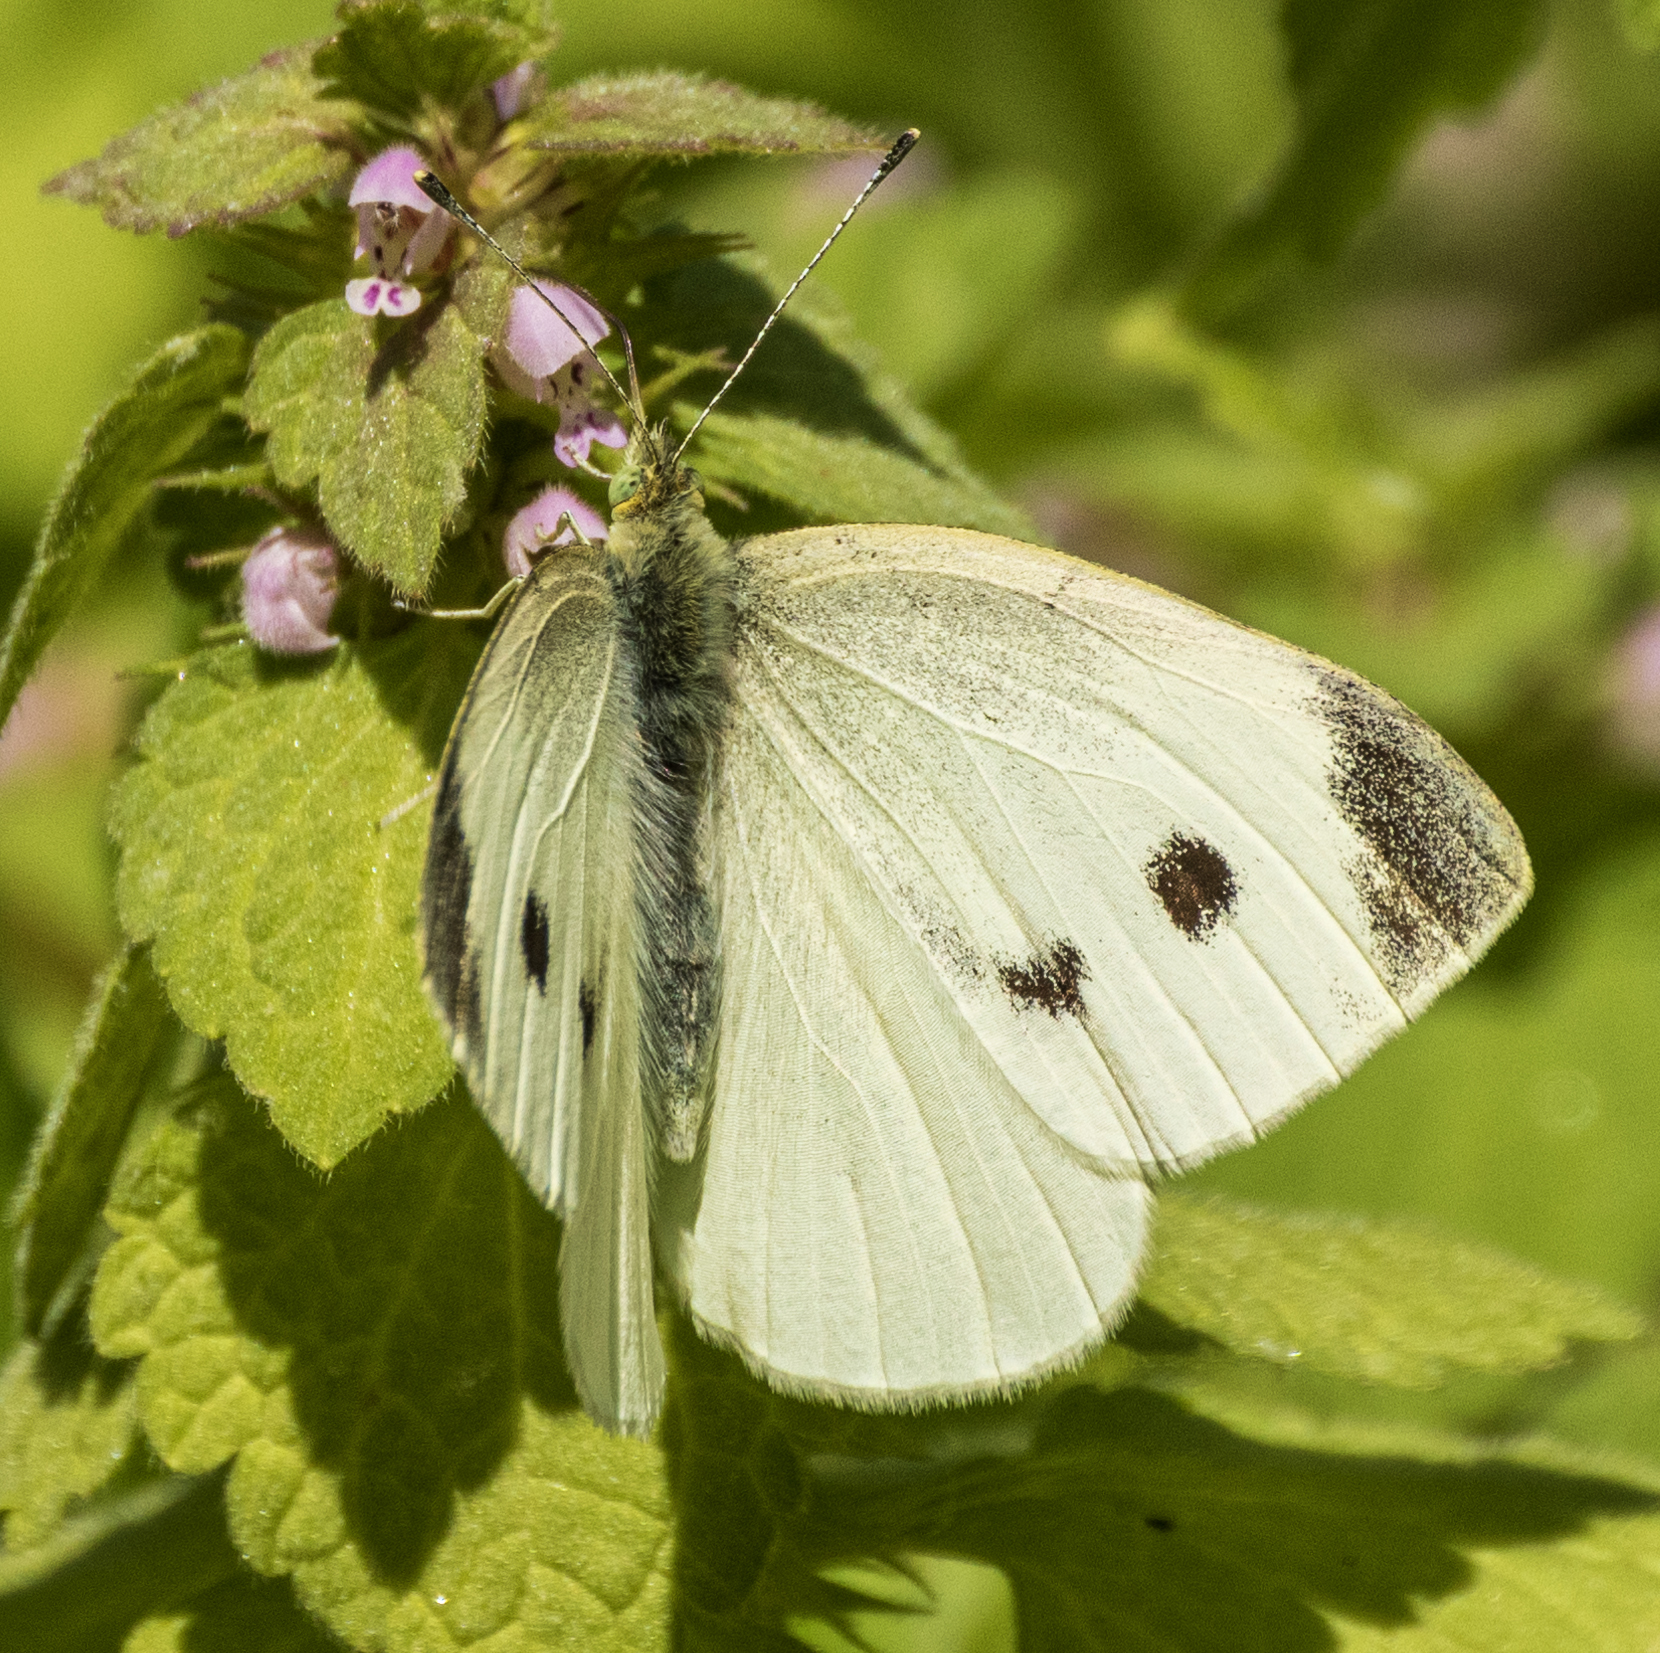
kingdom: Animalia
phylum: Arthropoda
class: Insecta
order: Lepidoptera
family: Pieridae
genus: Pieris
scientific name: Pieris rapae
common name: Small white
